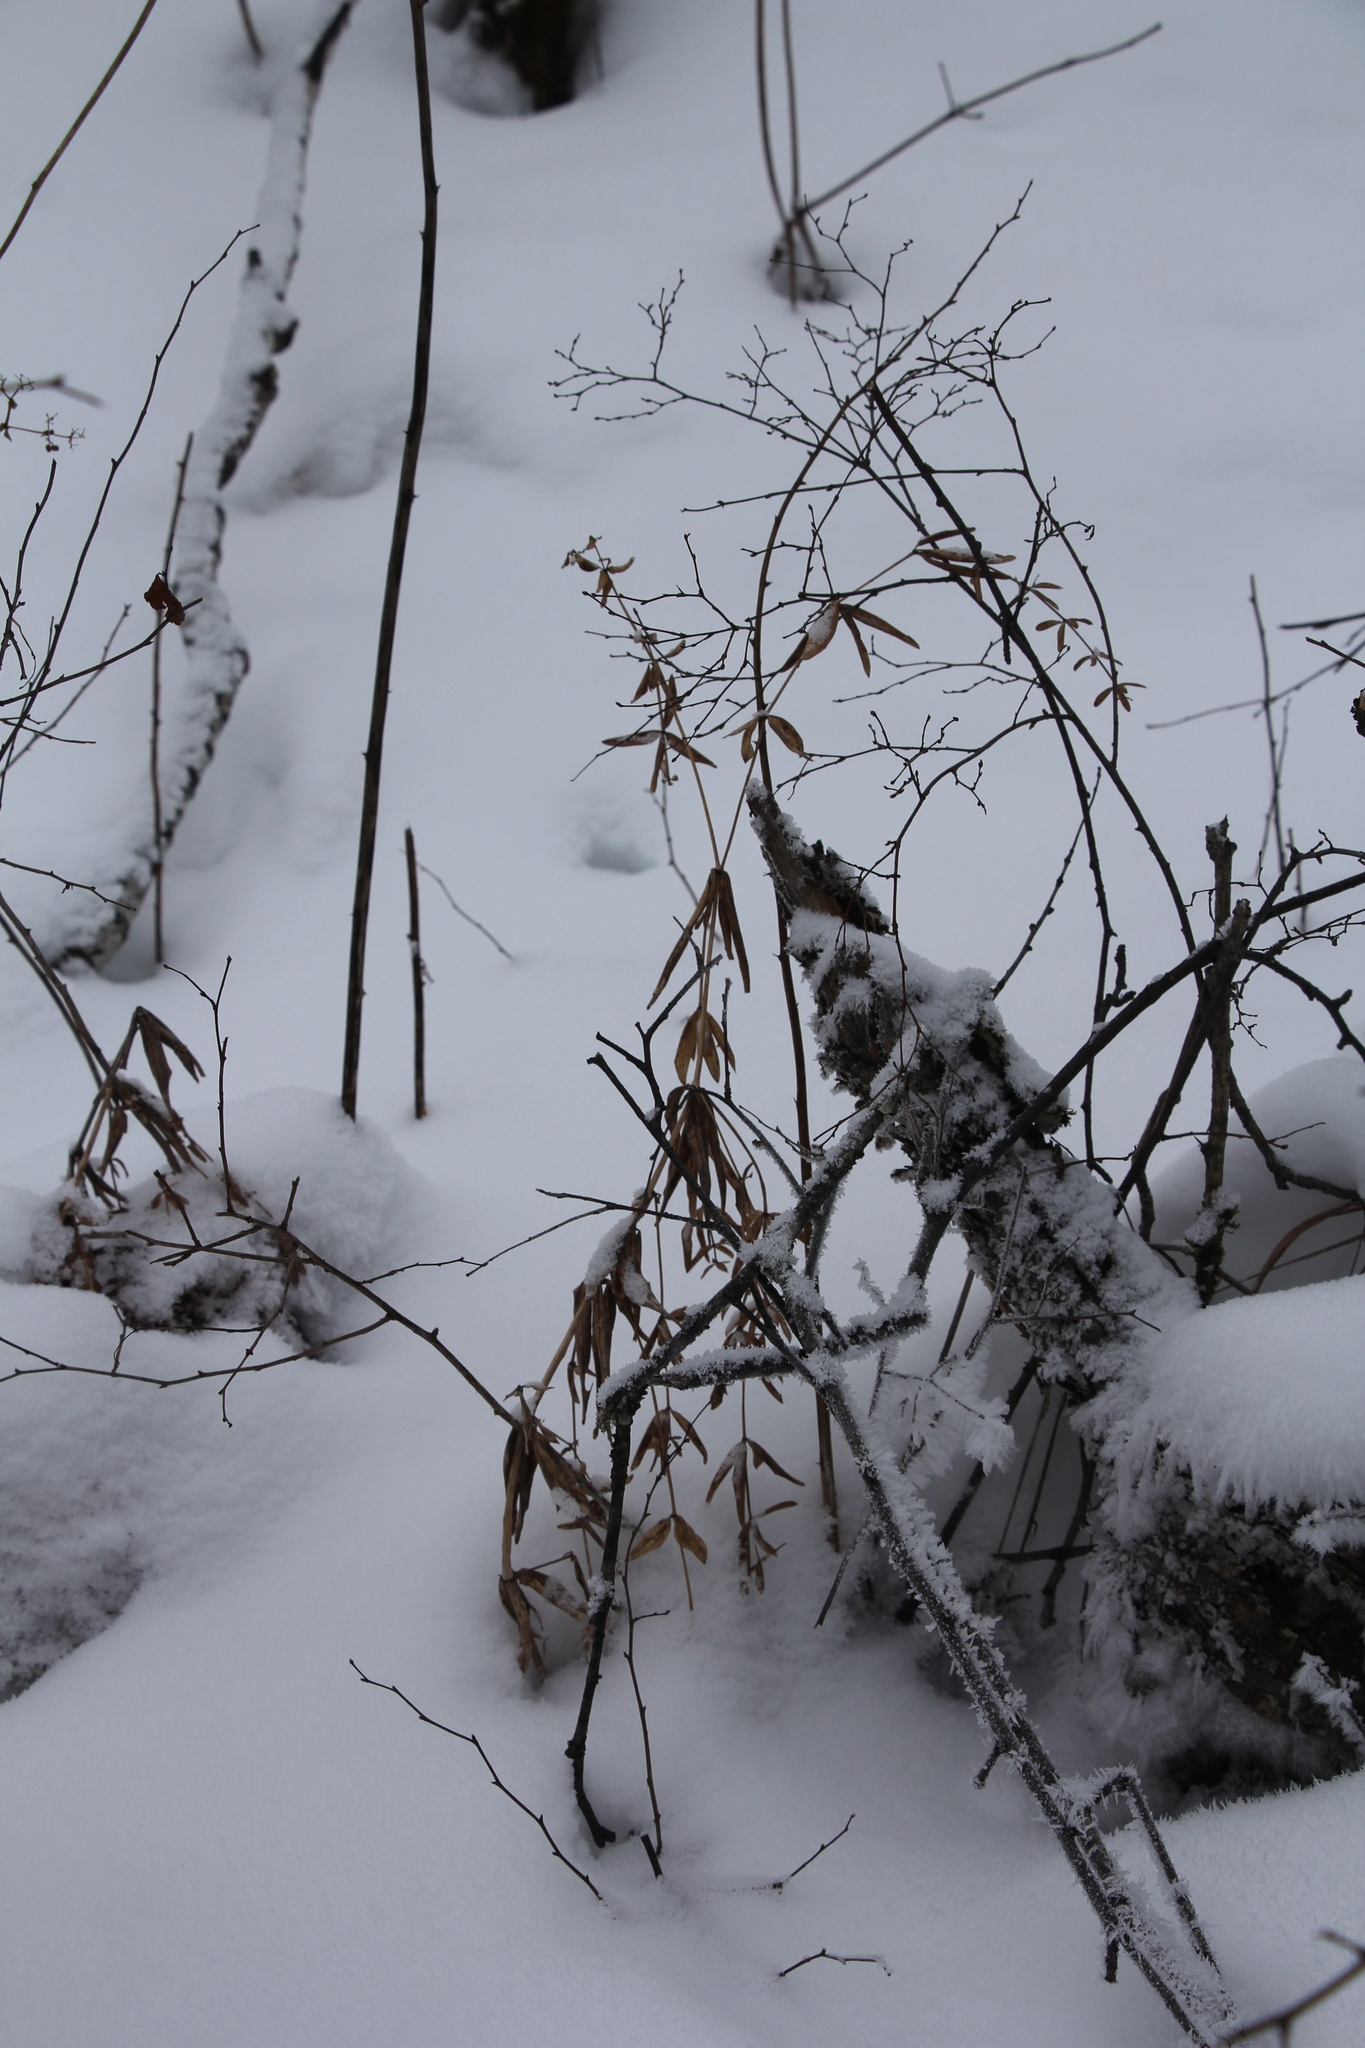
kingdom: Plantae
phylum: Tracheophyta
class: Magnoliopsida
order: Gentianales
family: Rubiaceae
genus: Galium
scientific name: Galium boreale
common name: Northern bedstraw
